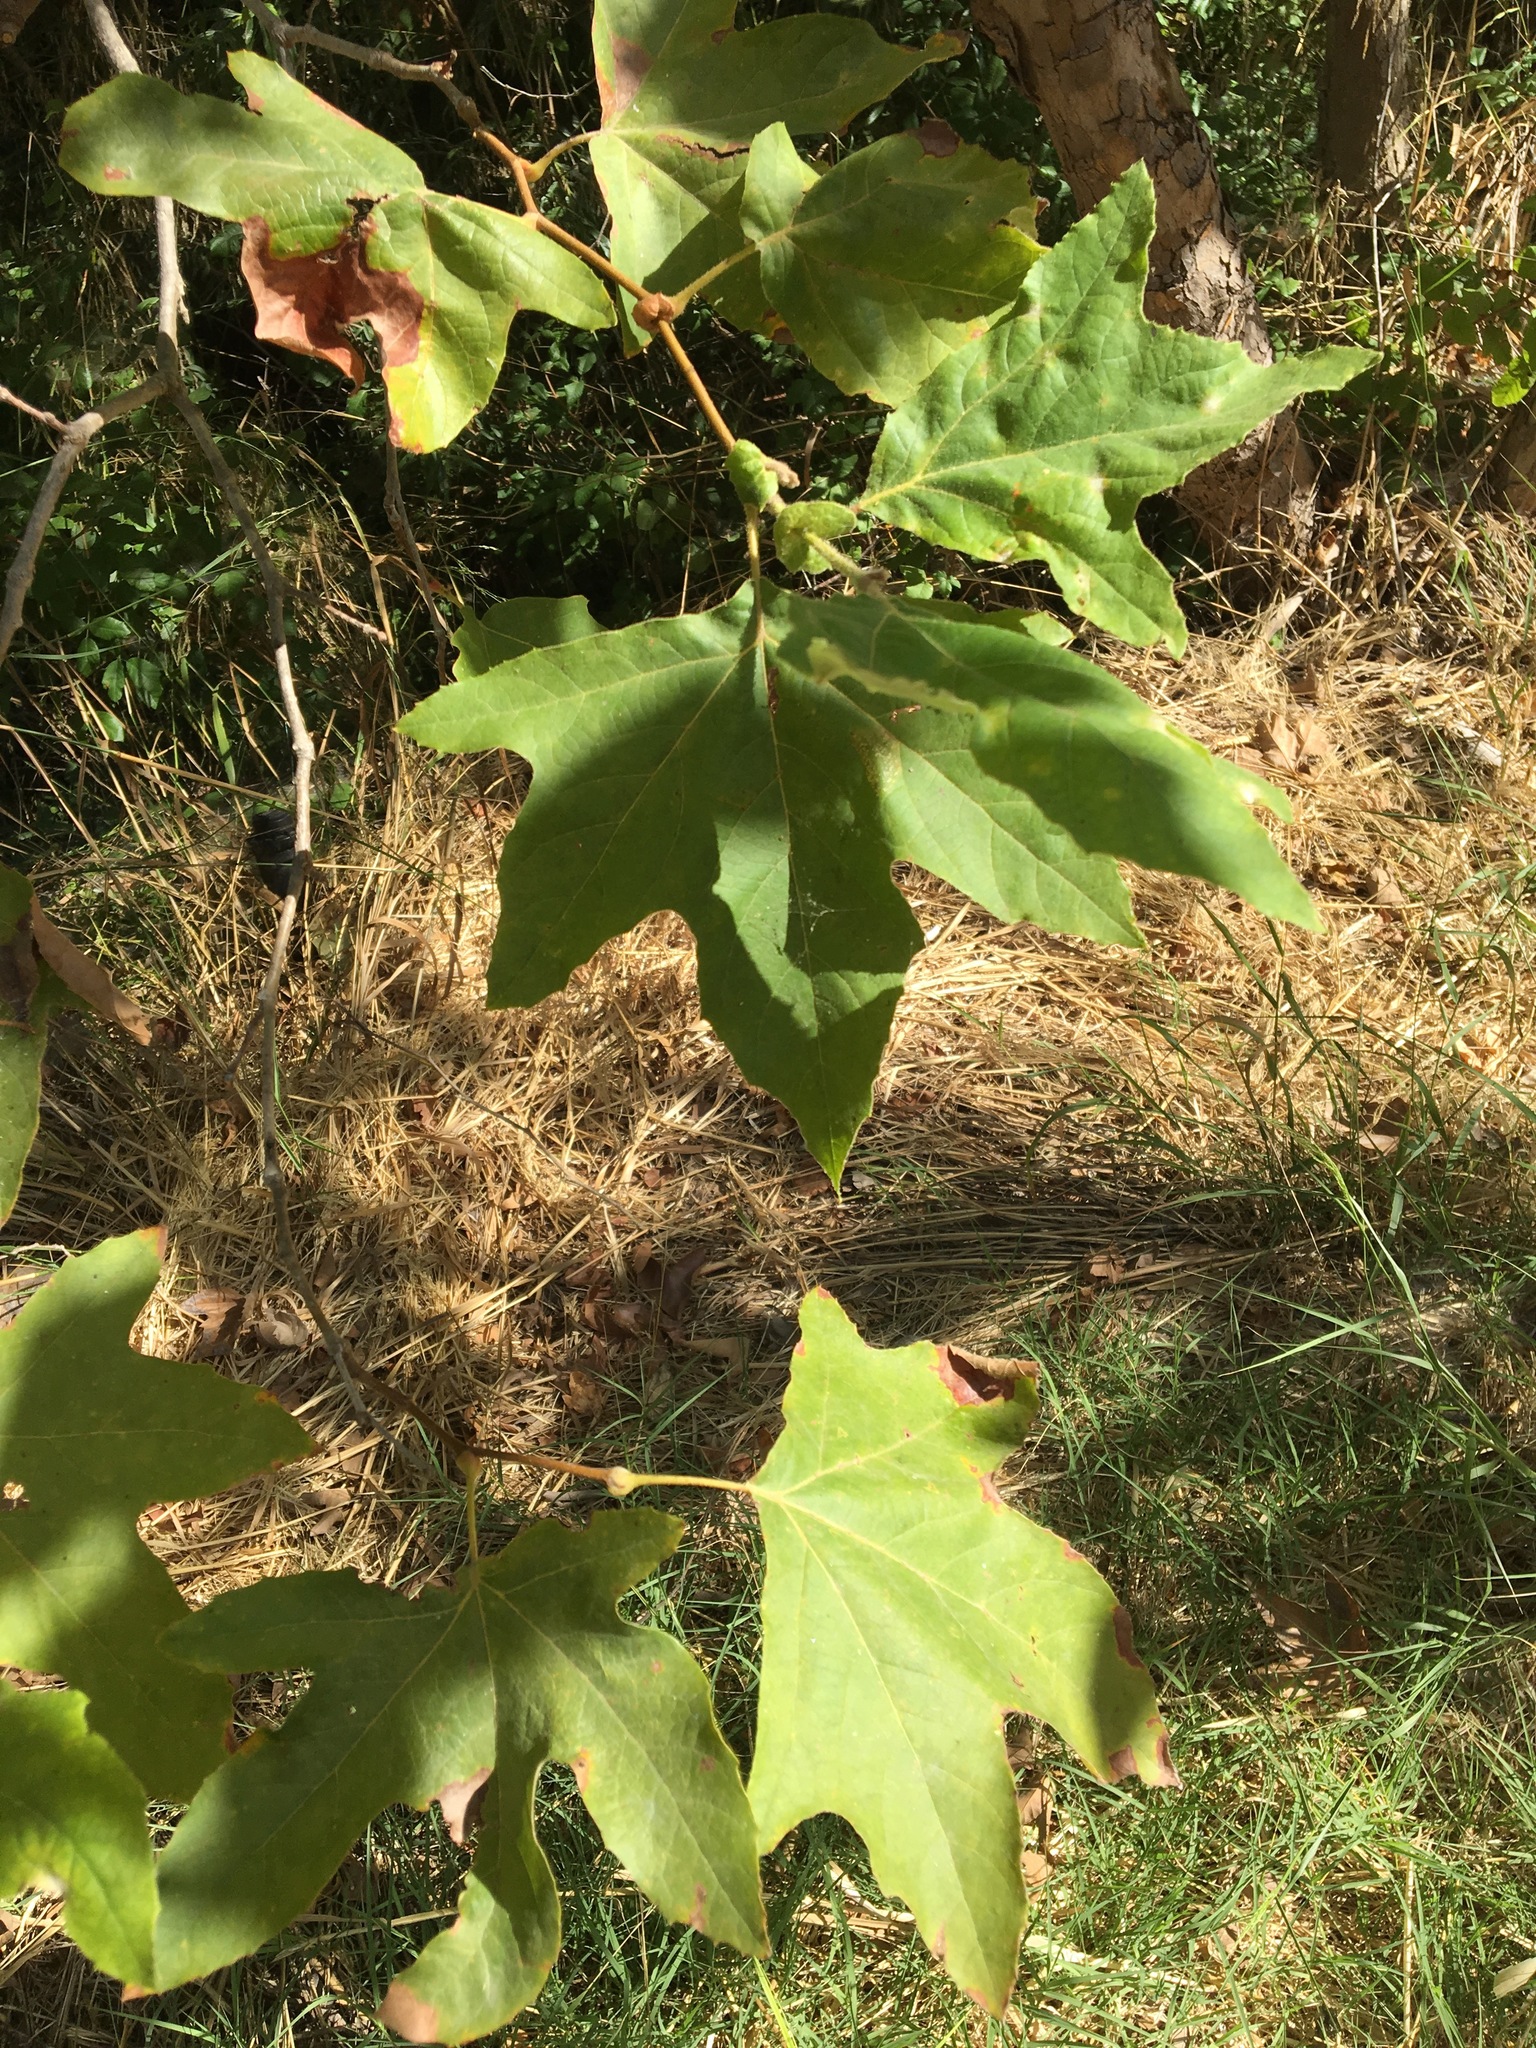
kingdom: Plantae
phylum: Tracheophyta
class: Magnoliopsida
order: Proteales
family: Platanaceae
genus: Platanus
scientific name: Platanus racemosa
